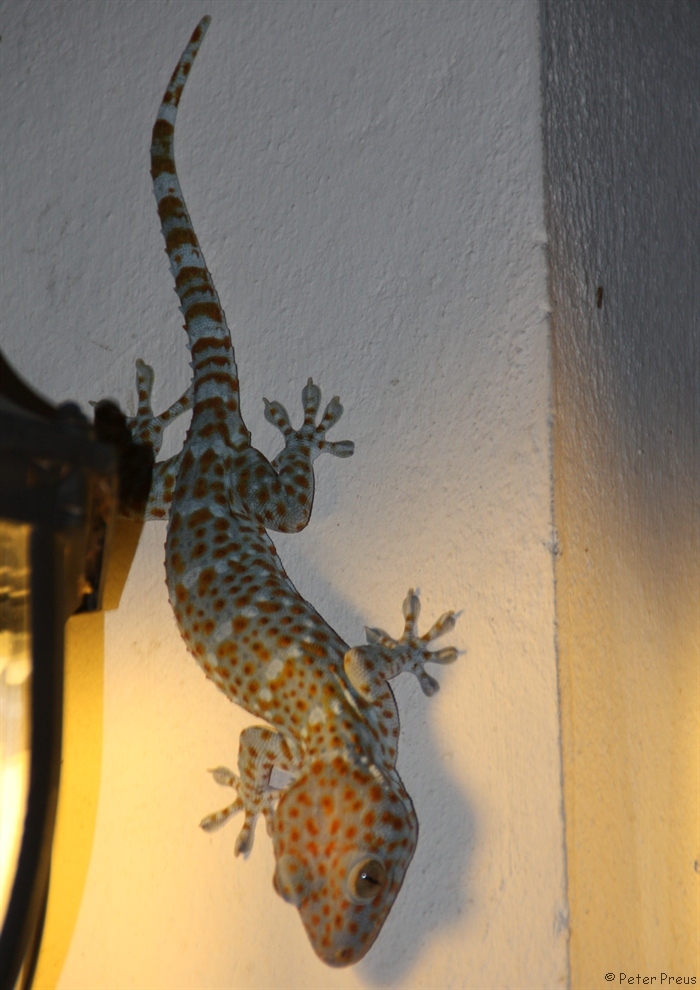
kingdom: Animalia
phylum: Chordata
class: Squamata
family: Gekkonidae
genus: Gekko
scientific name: Gekko gecko
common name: Tokay gecko
